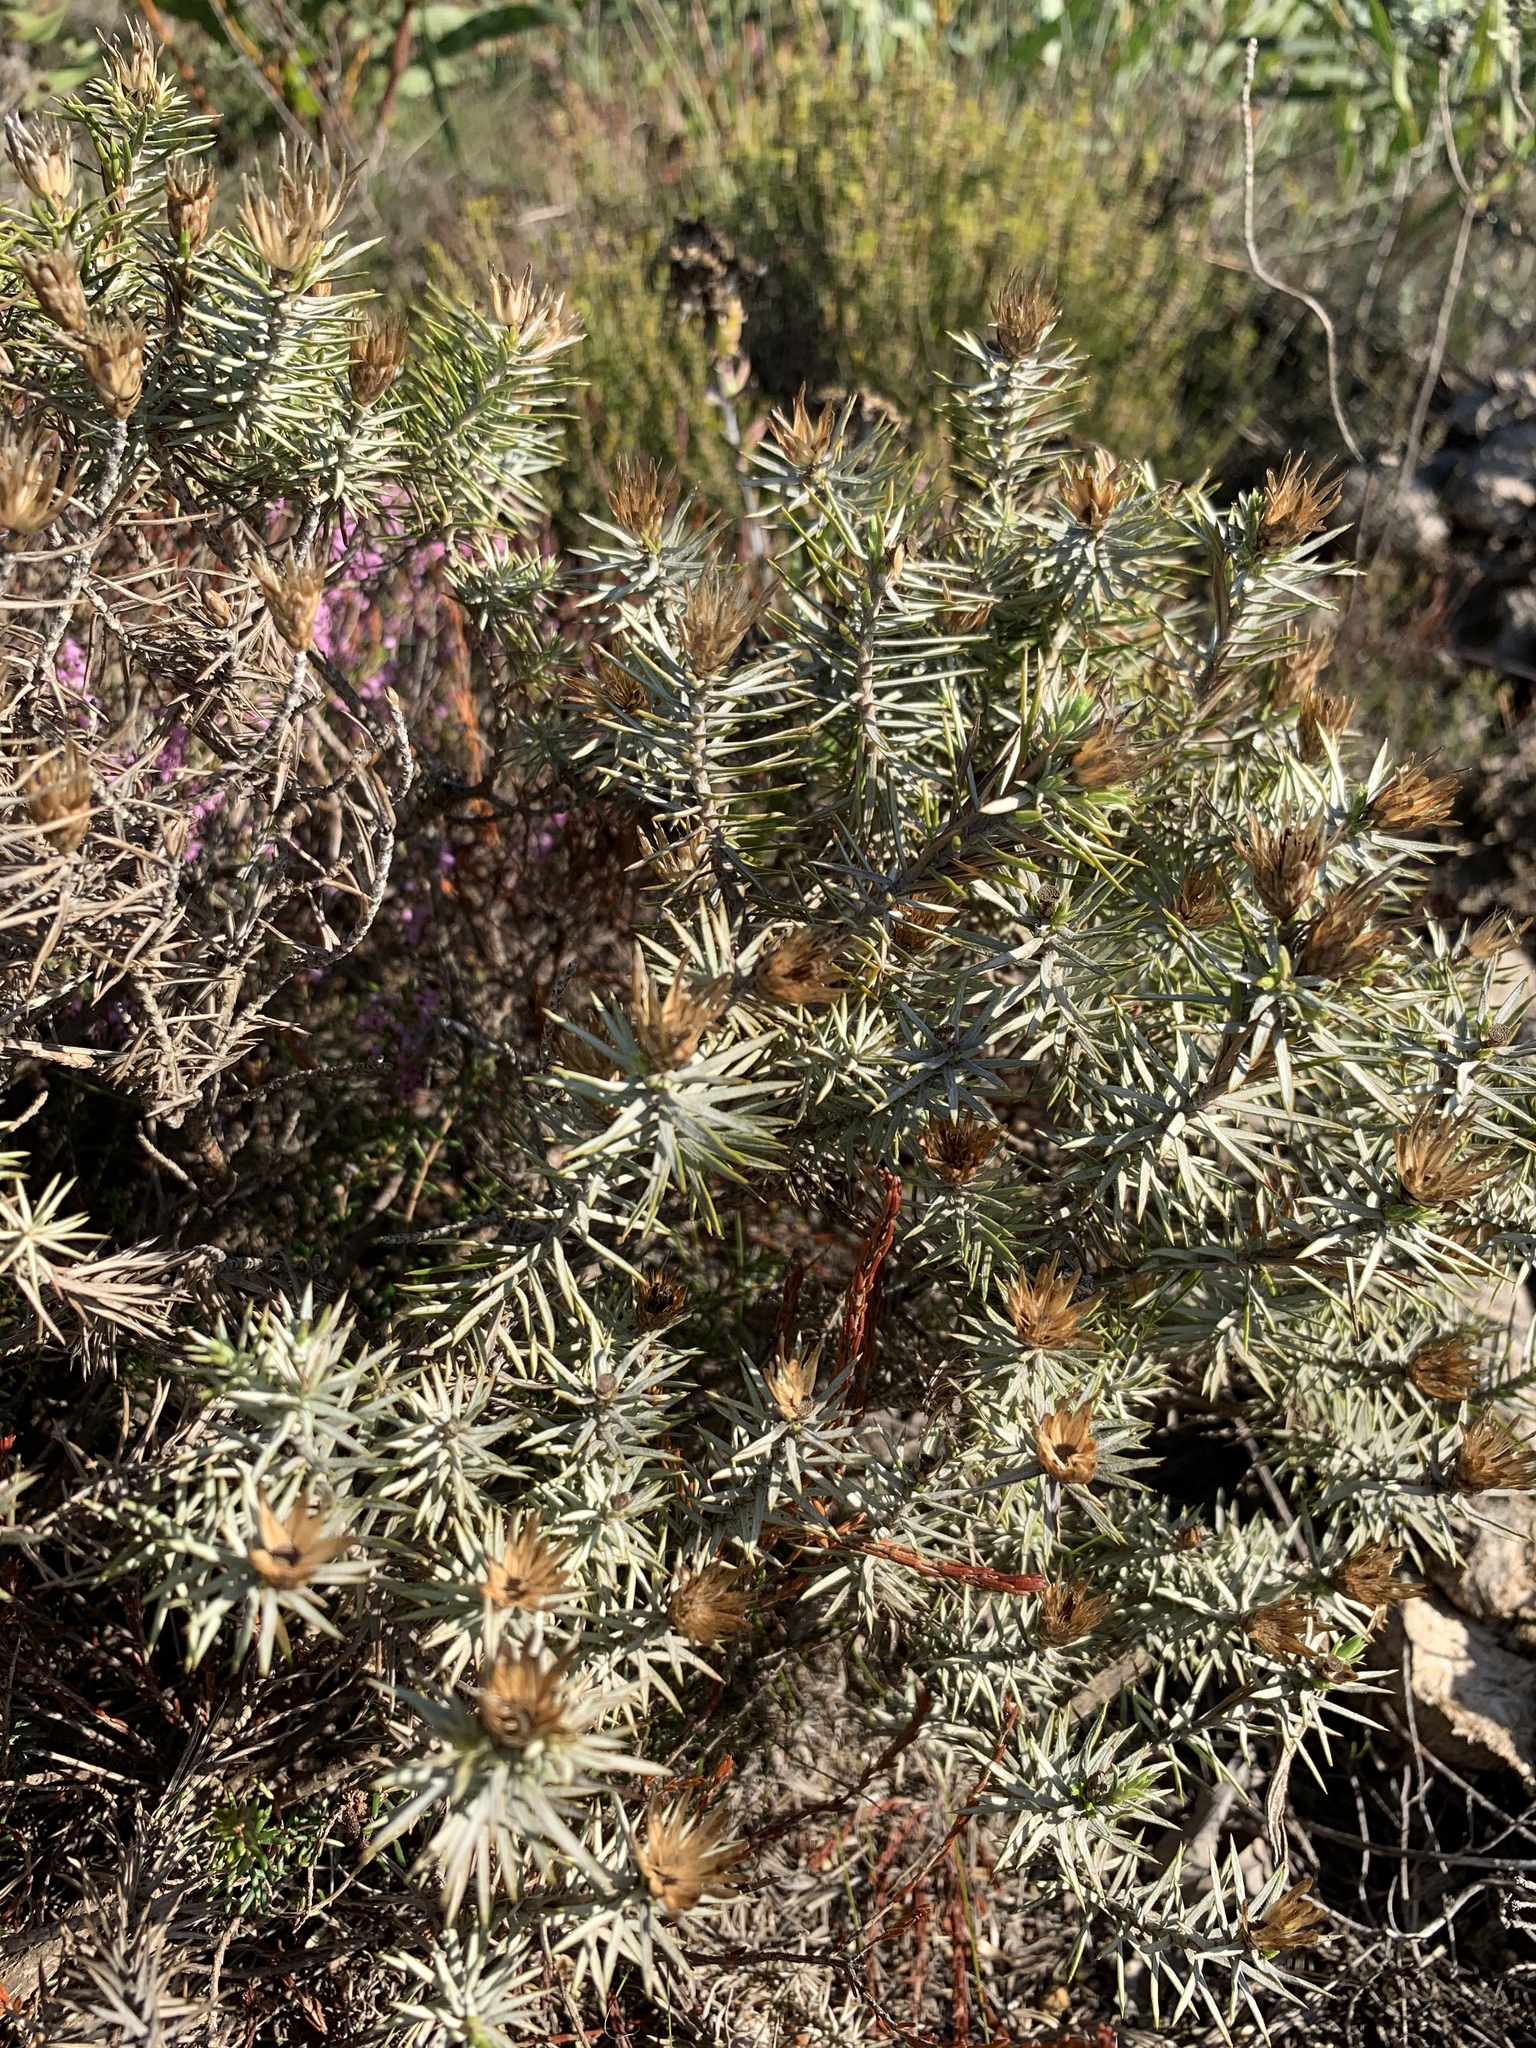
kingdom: Plantae
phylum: Tracheophyta
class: Magnoliopsida
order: Asterales
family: Asteraceae
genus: Oedera
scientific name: Oedera pungens
